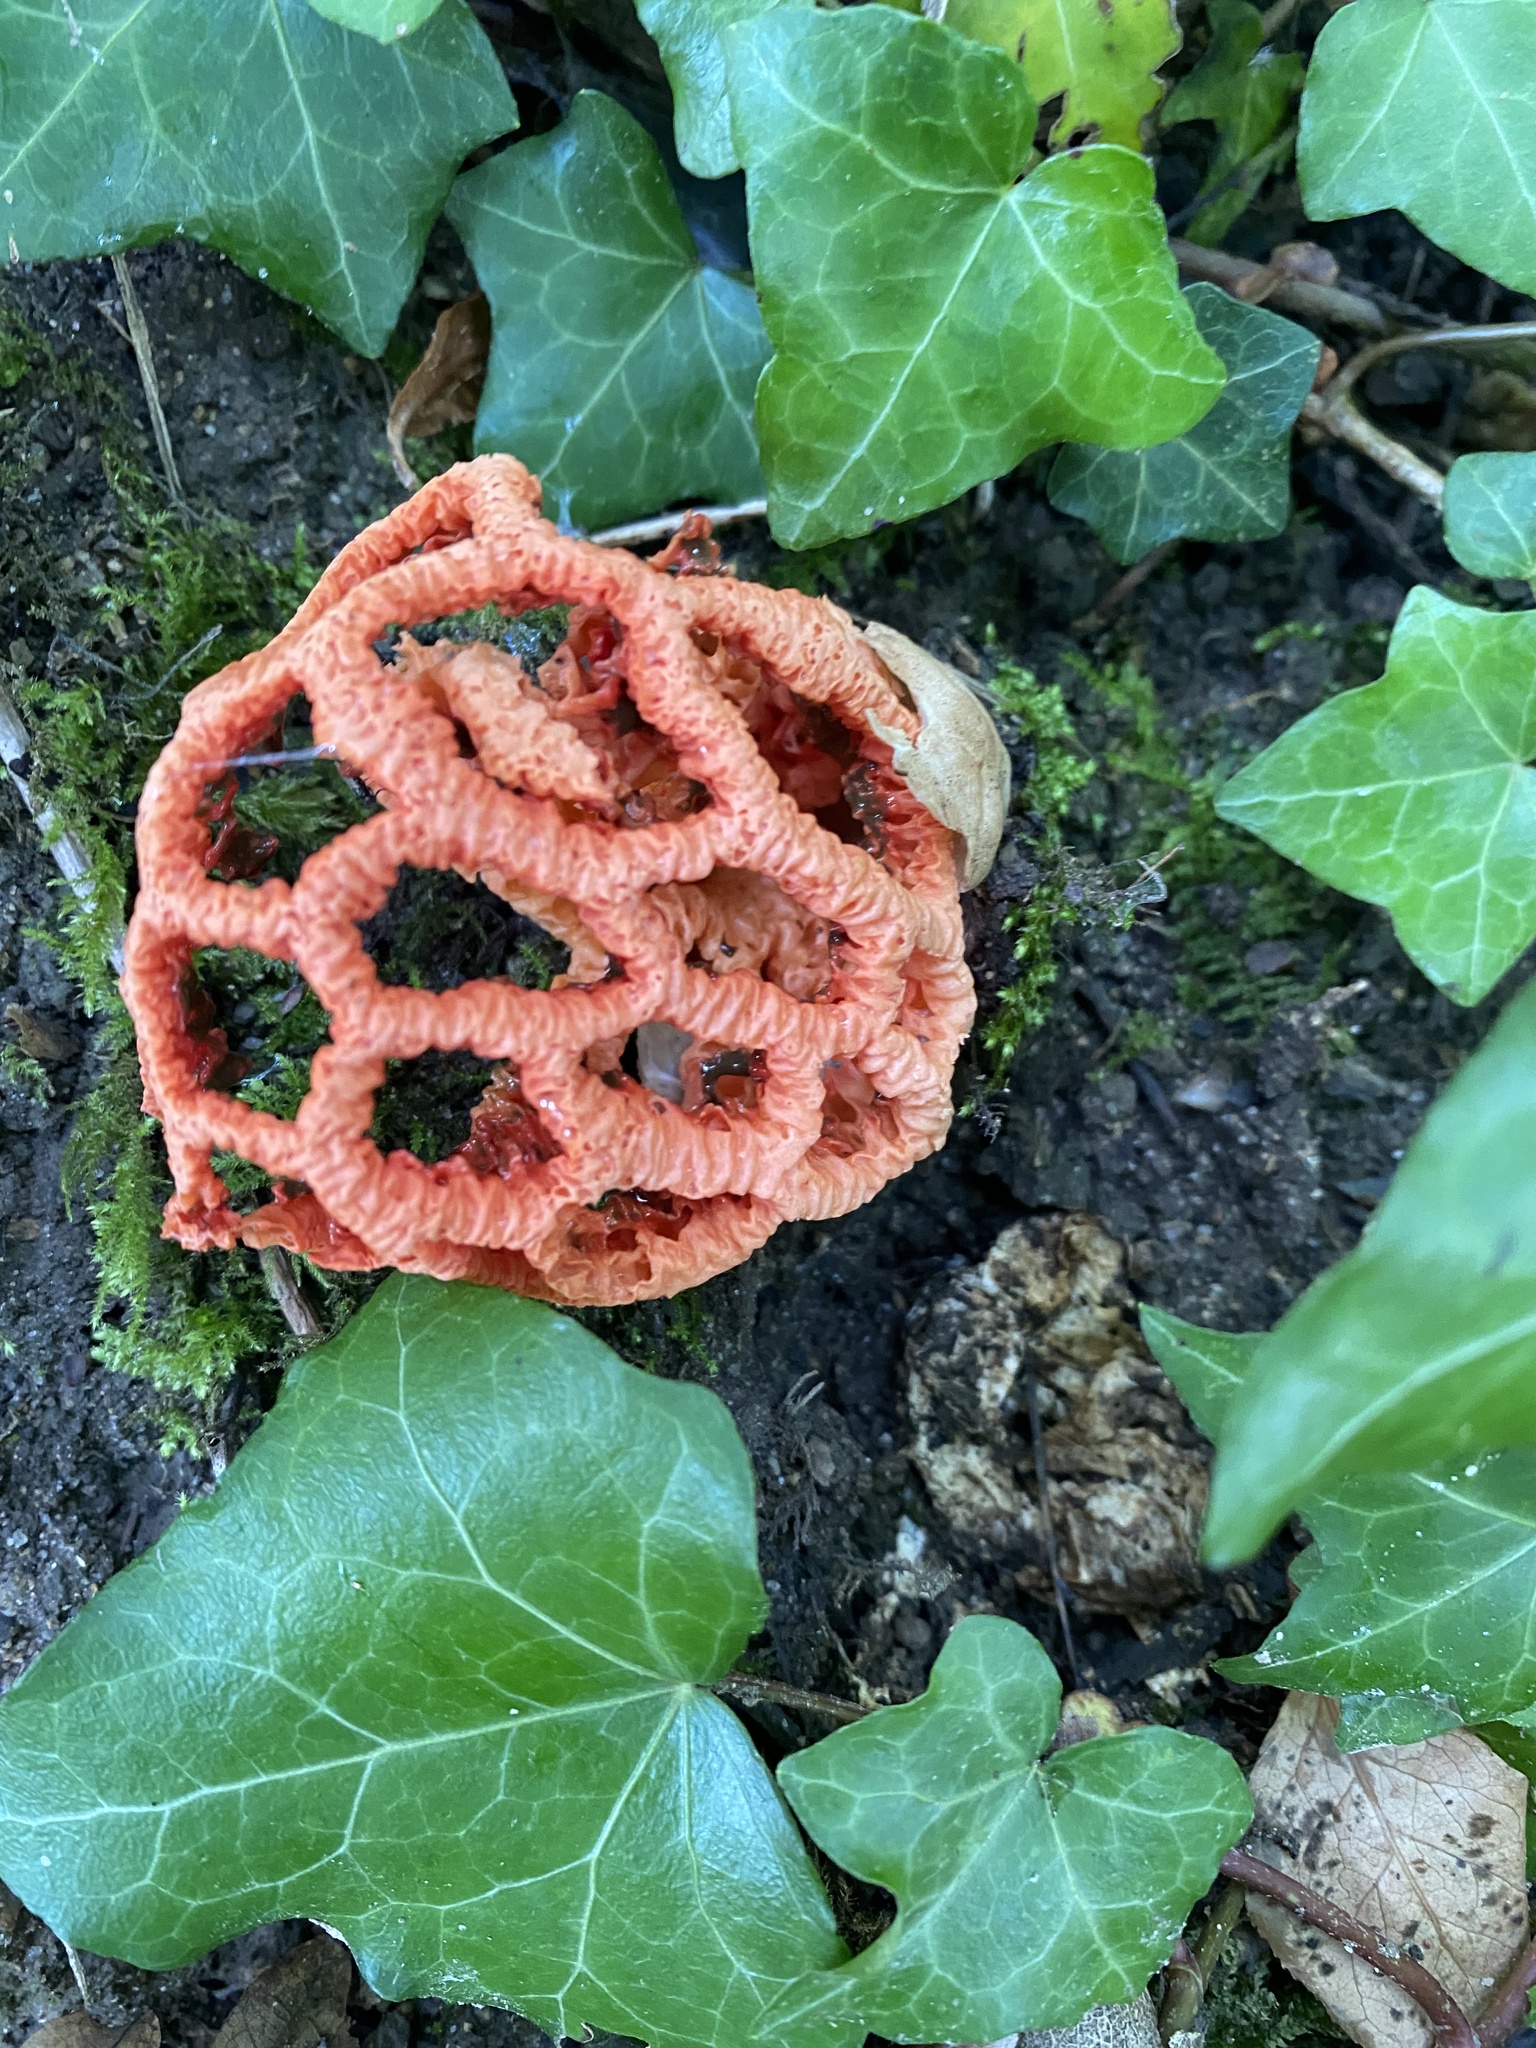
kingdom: Fungi
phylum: Basidiomycota
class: Agaricomycetes
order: Phallales
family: Phallaceae
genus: Clathrus
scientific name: Clathrus ruber
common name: Red cage
